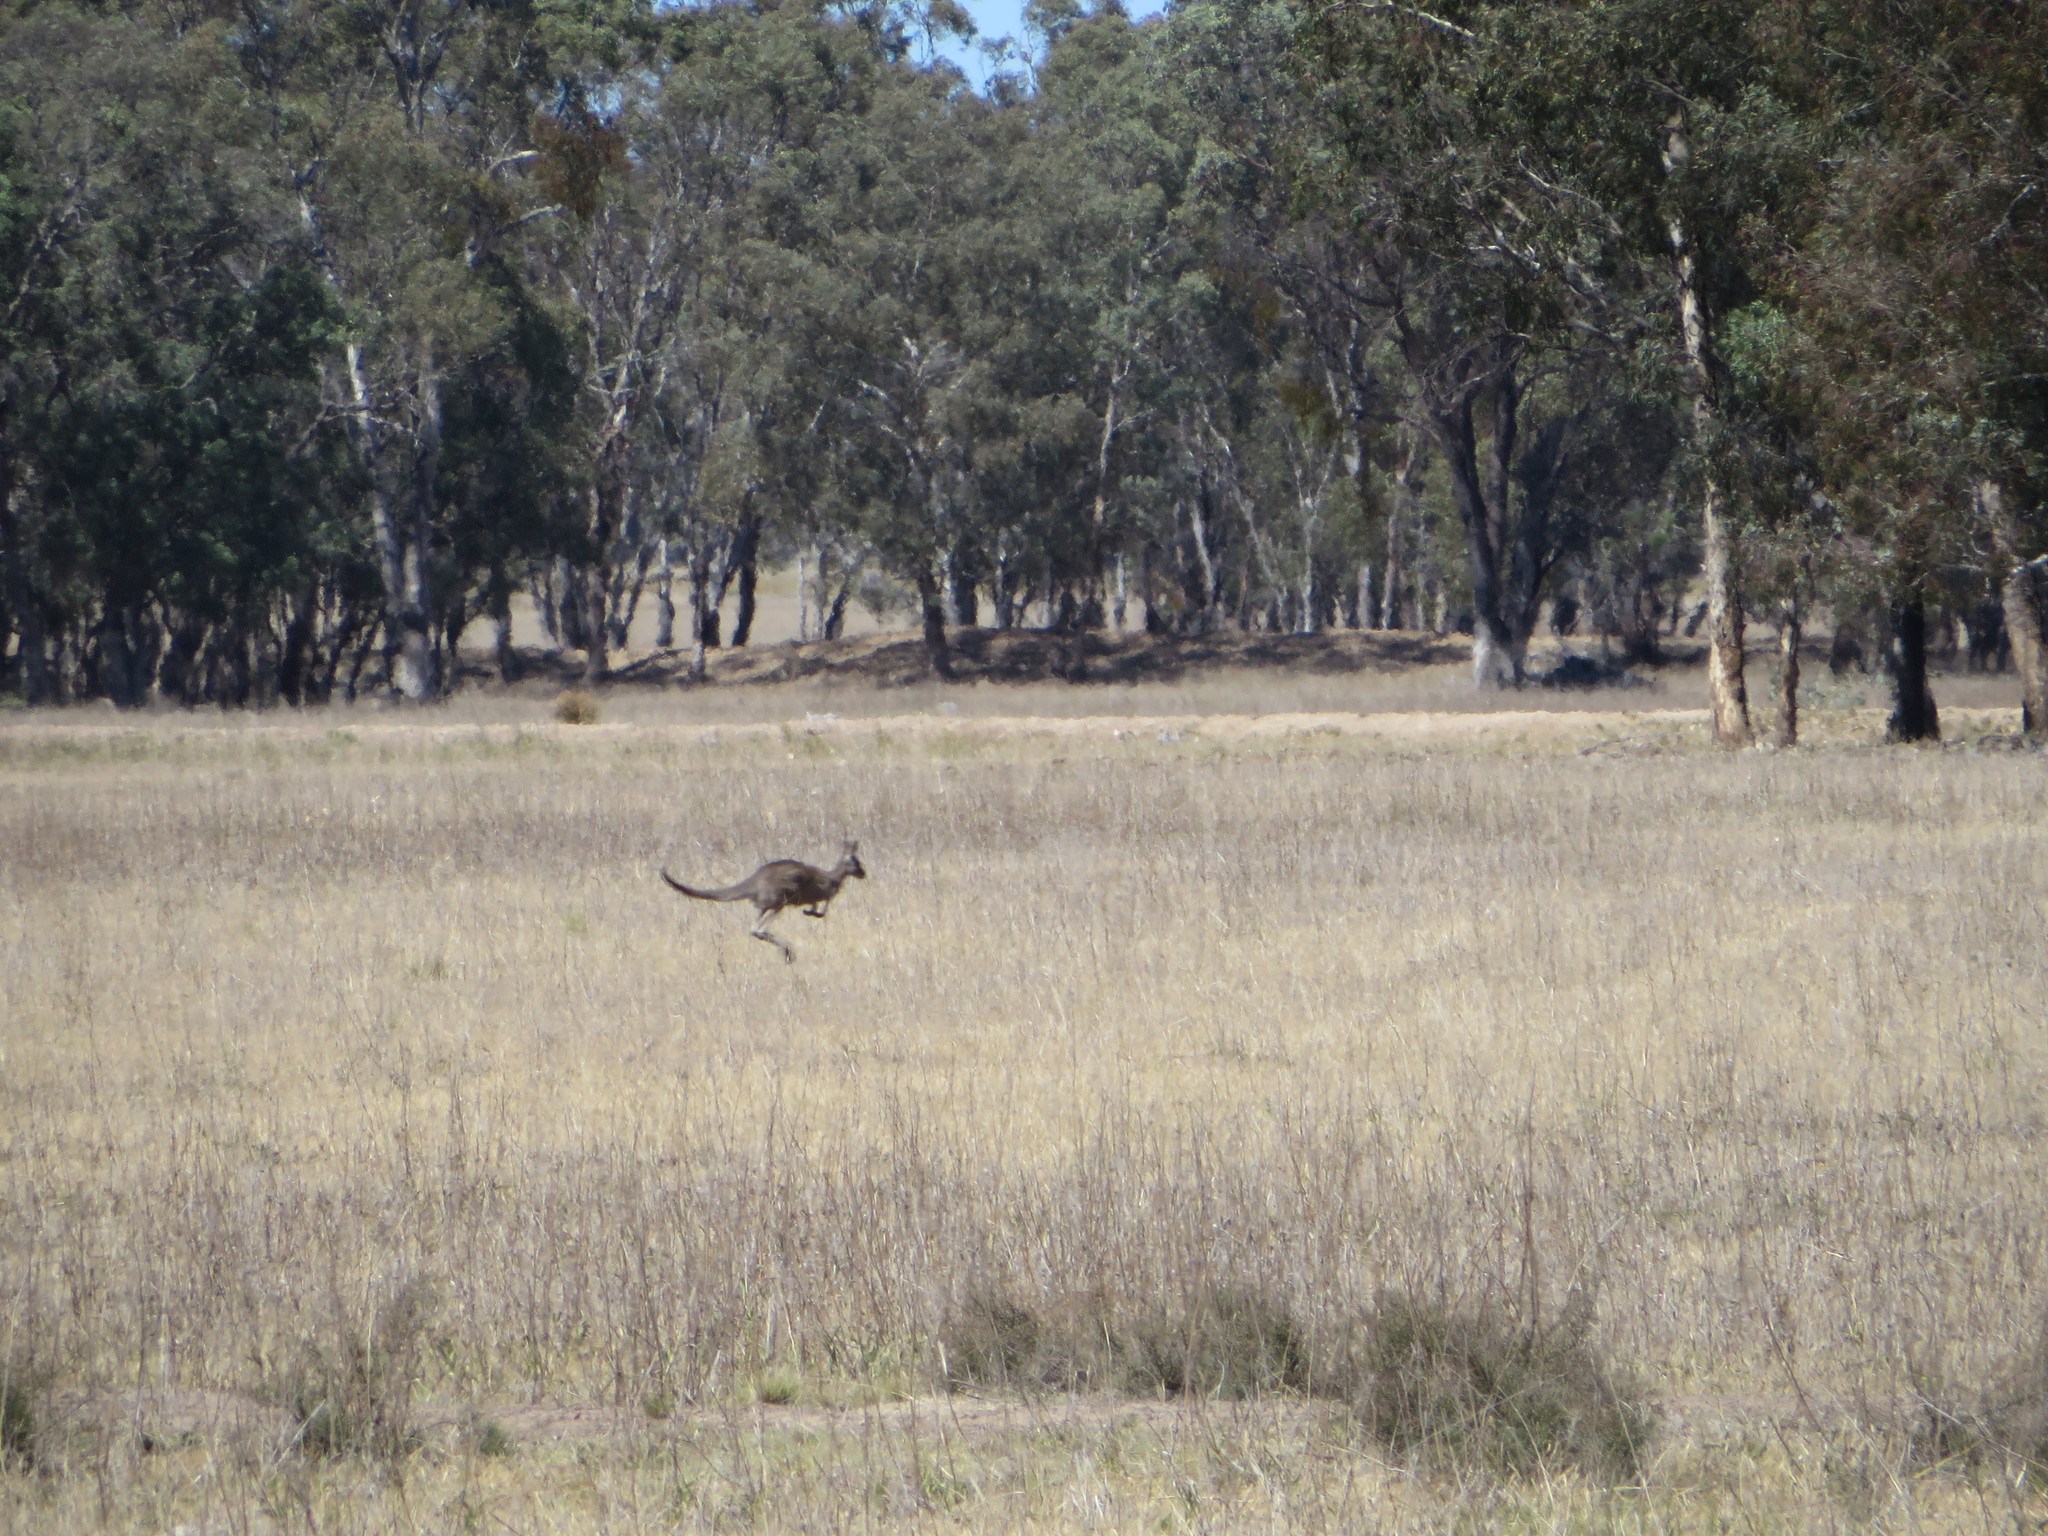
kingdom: Animalia
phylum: Chordata
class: Mammalia
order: Diprotodontia
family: Macropodidae
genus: Macropus
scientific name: Macropus giganteus
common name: Eastern grey kangaroo
